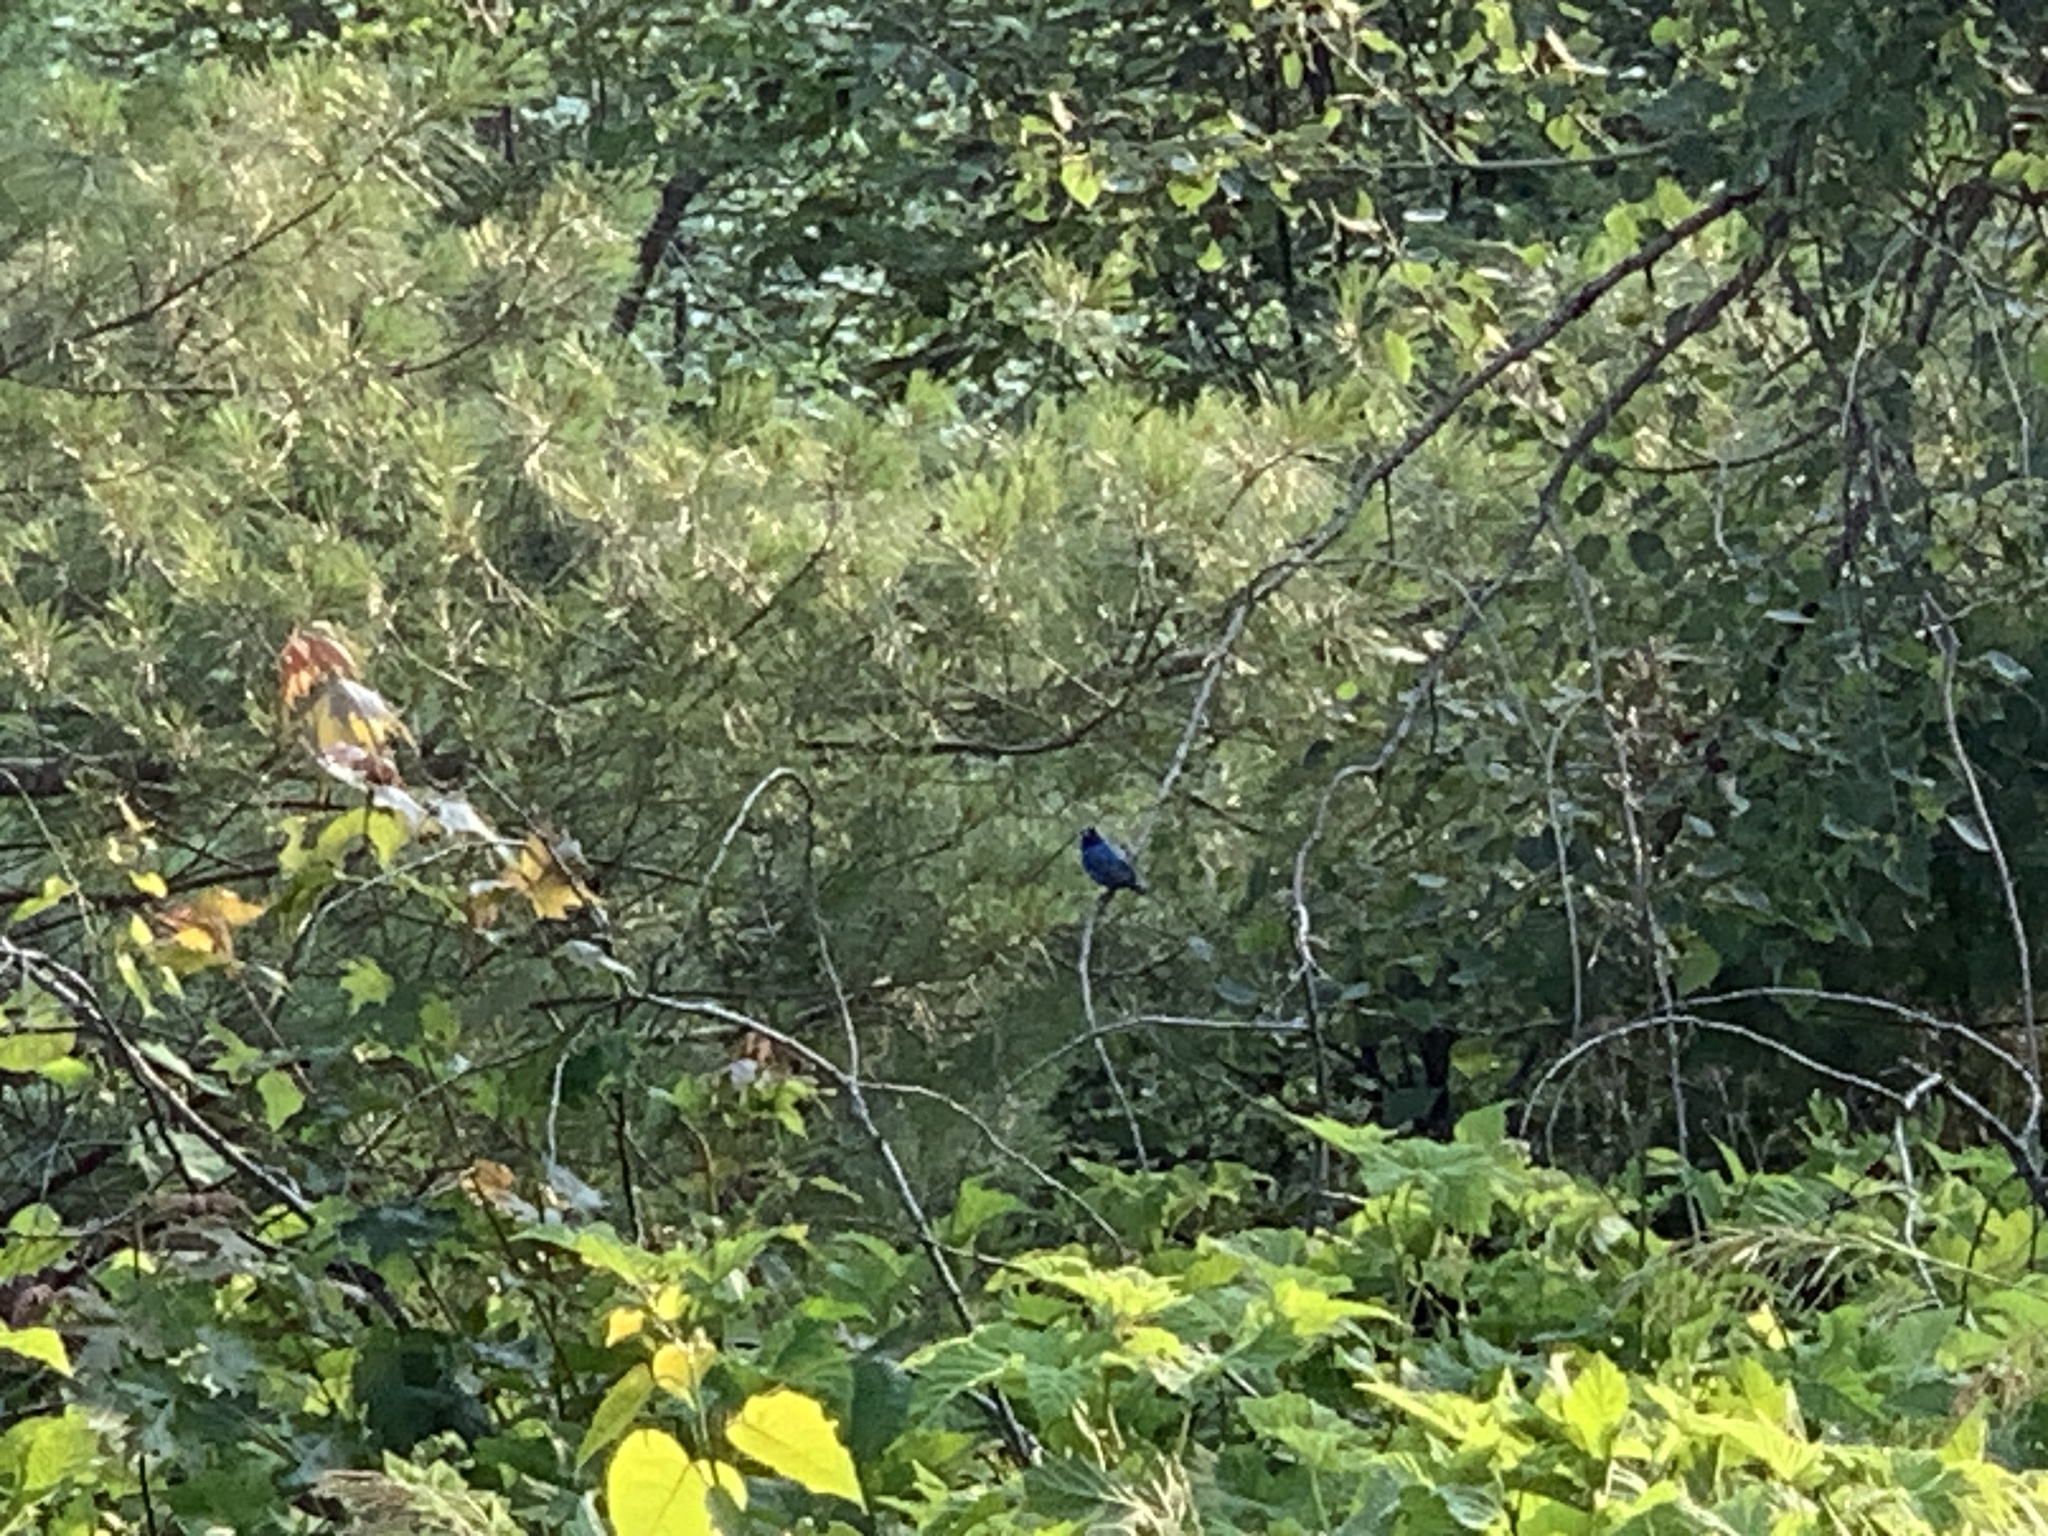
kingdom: Animalia
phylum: Chordata
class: Aves
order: Passeriformes
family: Cardinalidae
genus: Passerina
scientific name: Passerina cyanea
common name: Indigo bunting
